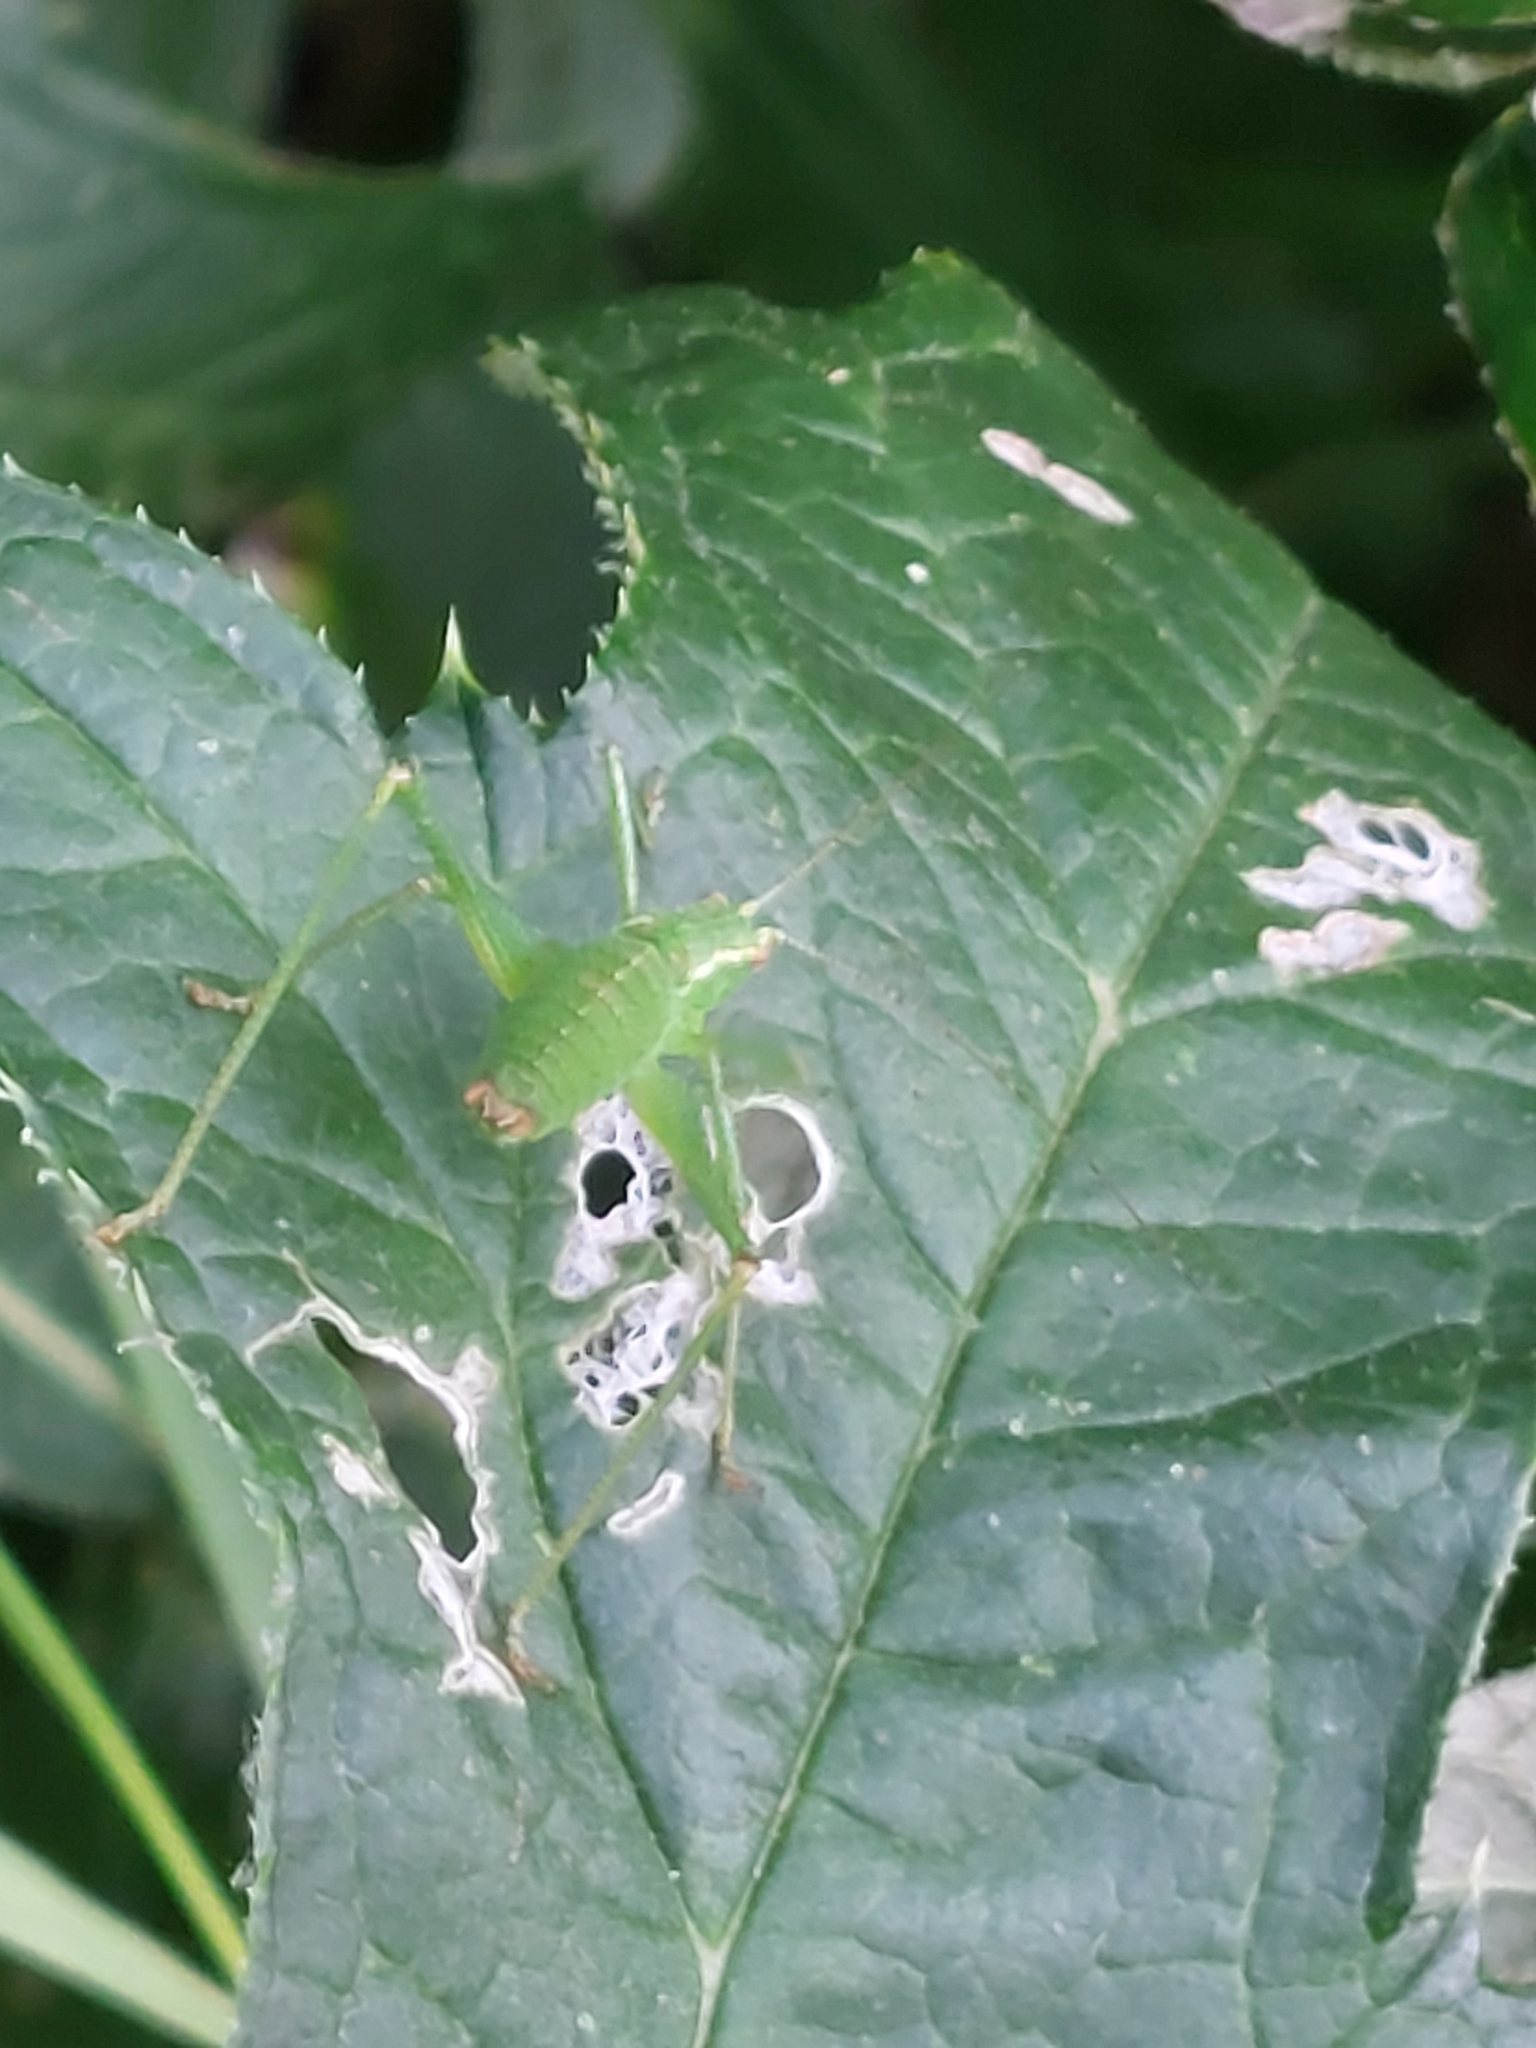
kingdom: Animalia
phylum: Arthropoda
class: Insecta
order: Orthoptera
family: Tettigoniidae
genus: Leptophyes
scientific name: Leptophyes punctatissima
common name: Speckled bush-cricket
